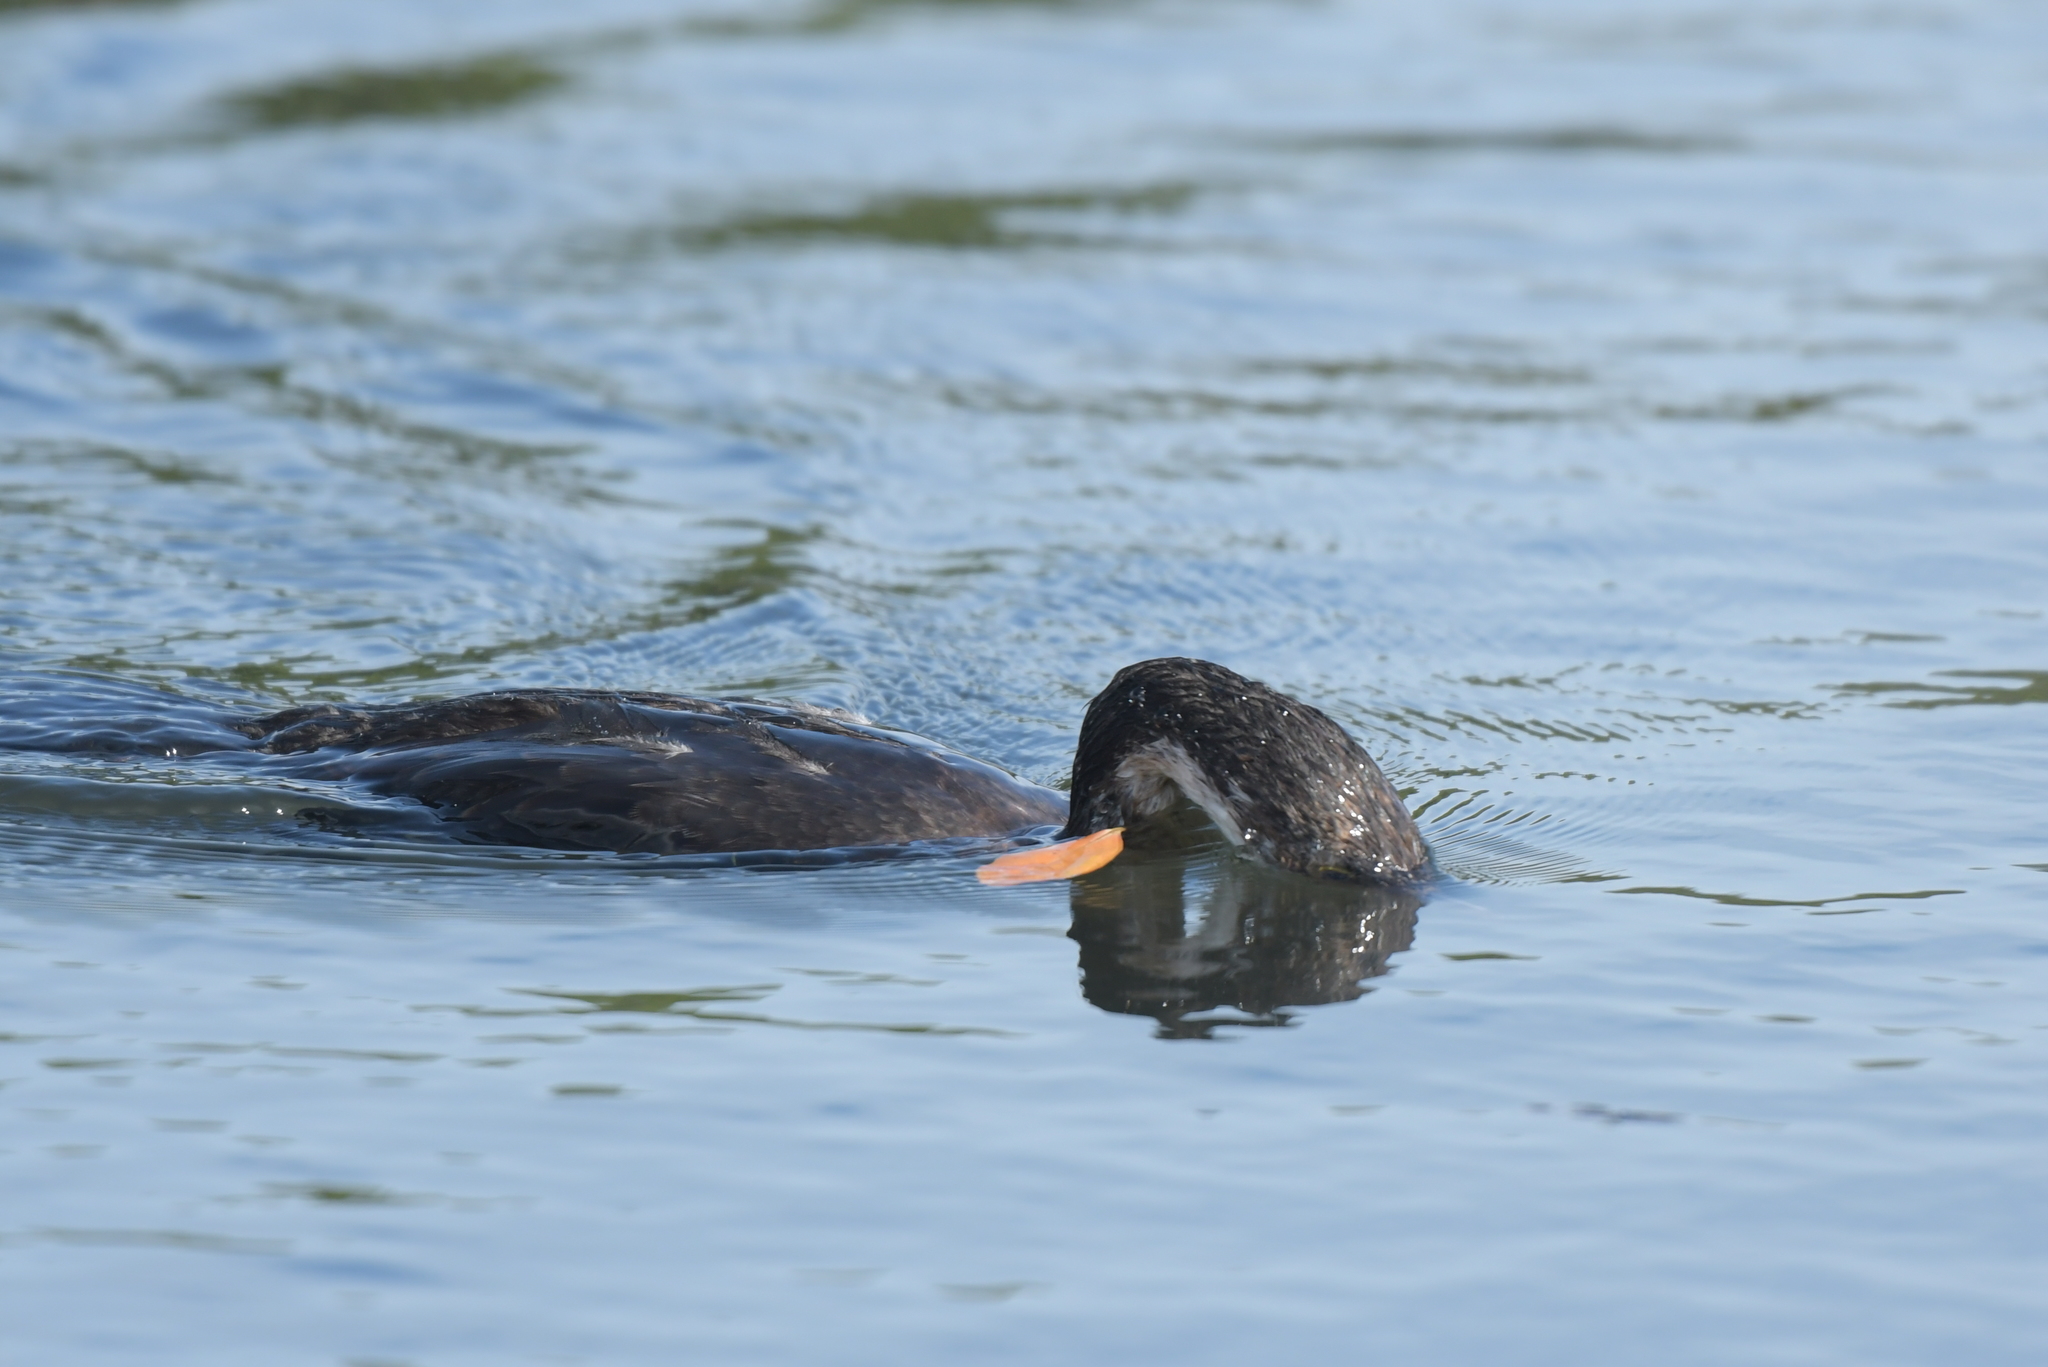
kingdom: Animalia
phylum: Chordata
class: Aves
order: Suliformes
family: Phalacrocoracidae
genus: Microcarbo
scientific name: Microcarbo melanoleucos
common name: Little pied cormorant
